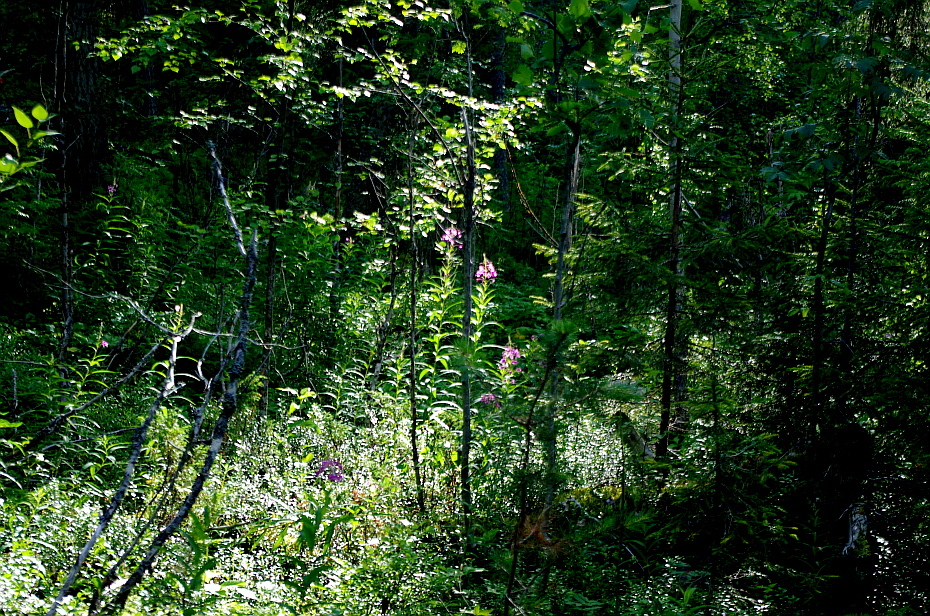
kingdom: Plantae
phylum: Tracheophyta
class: Magnoliopsida
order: Myrtales
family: Onagraceae
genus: Chamaenerion
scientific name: Chamaenerion angustifolium
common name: Fireweed
